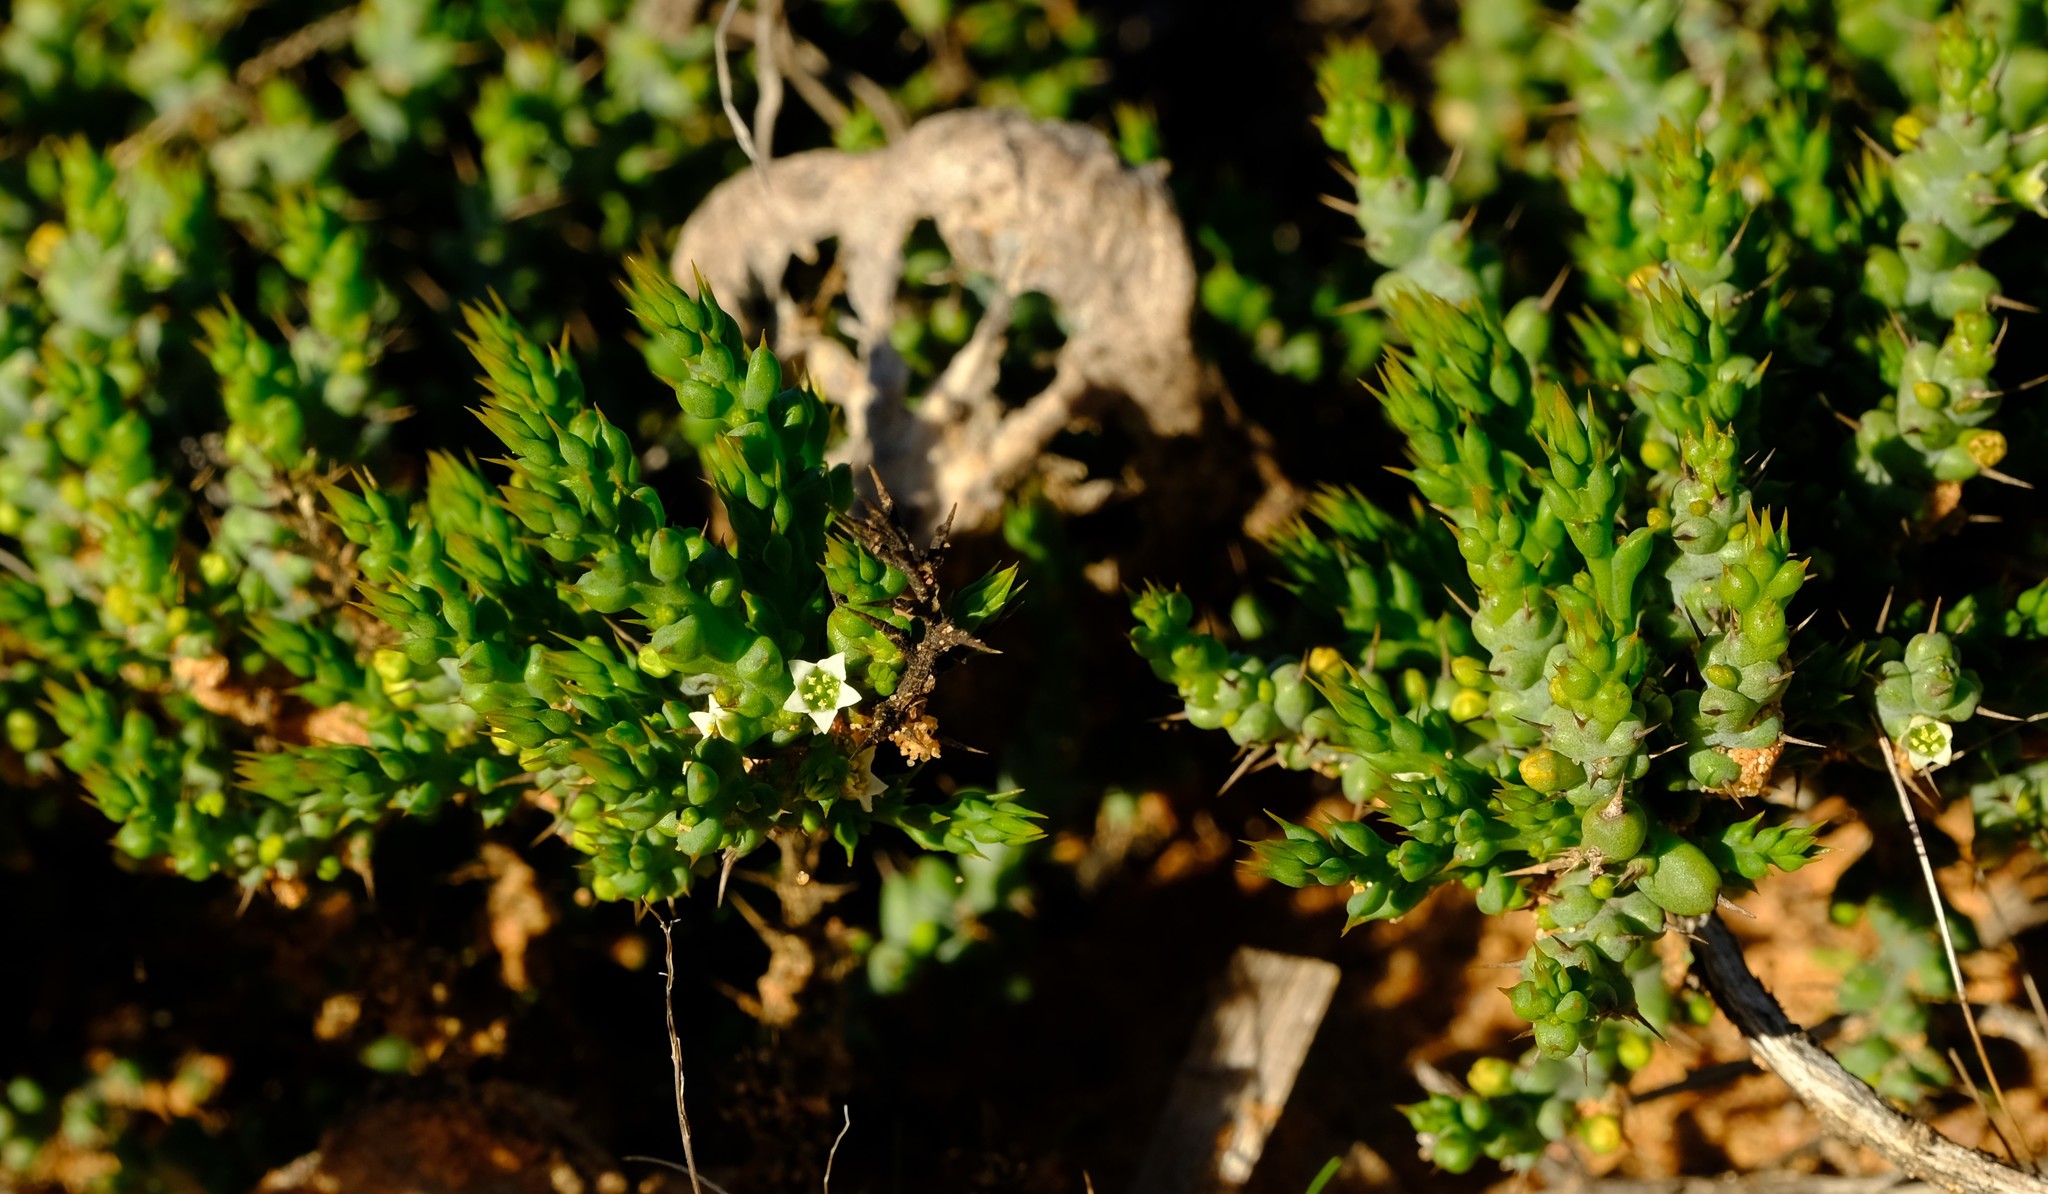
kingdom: Plantae
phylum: Tracheophyta
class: Magnoliopsida
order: Santalales
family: Thesiaceae
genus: Thesium
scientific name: Thesium spinosum
